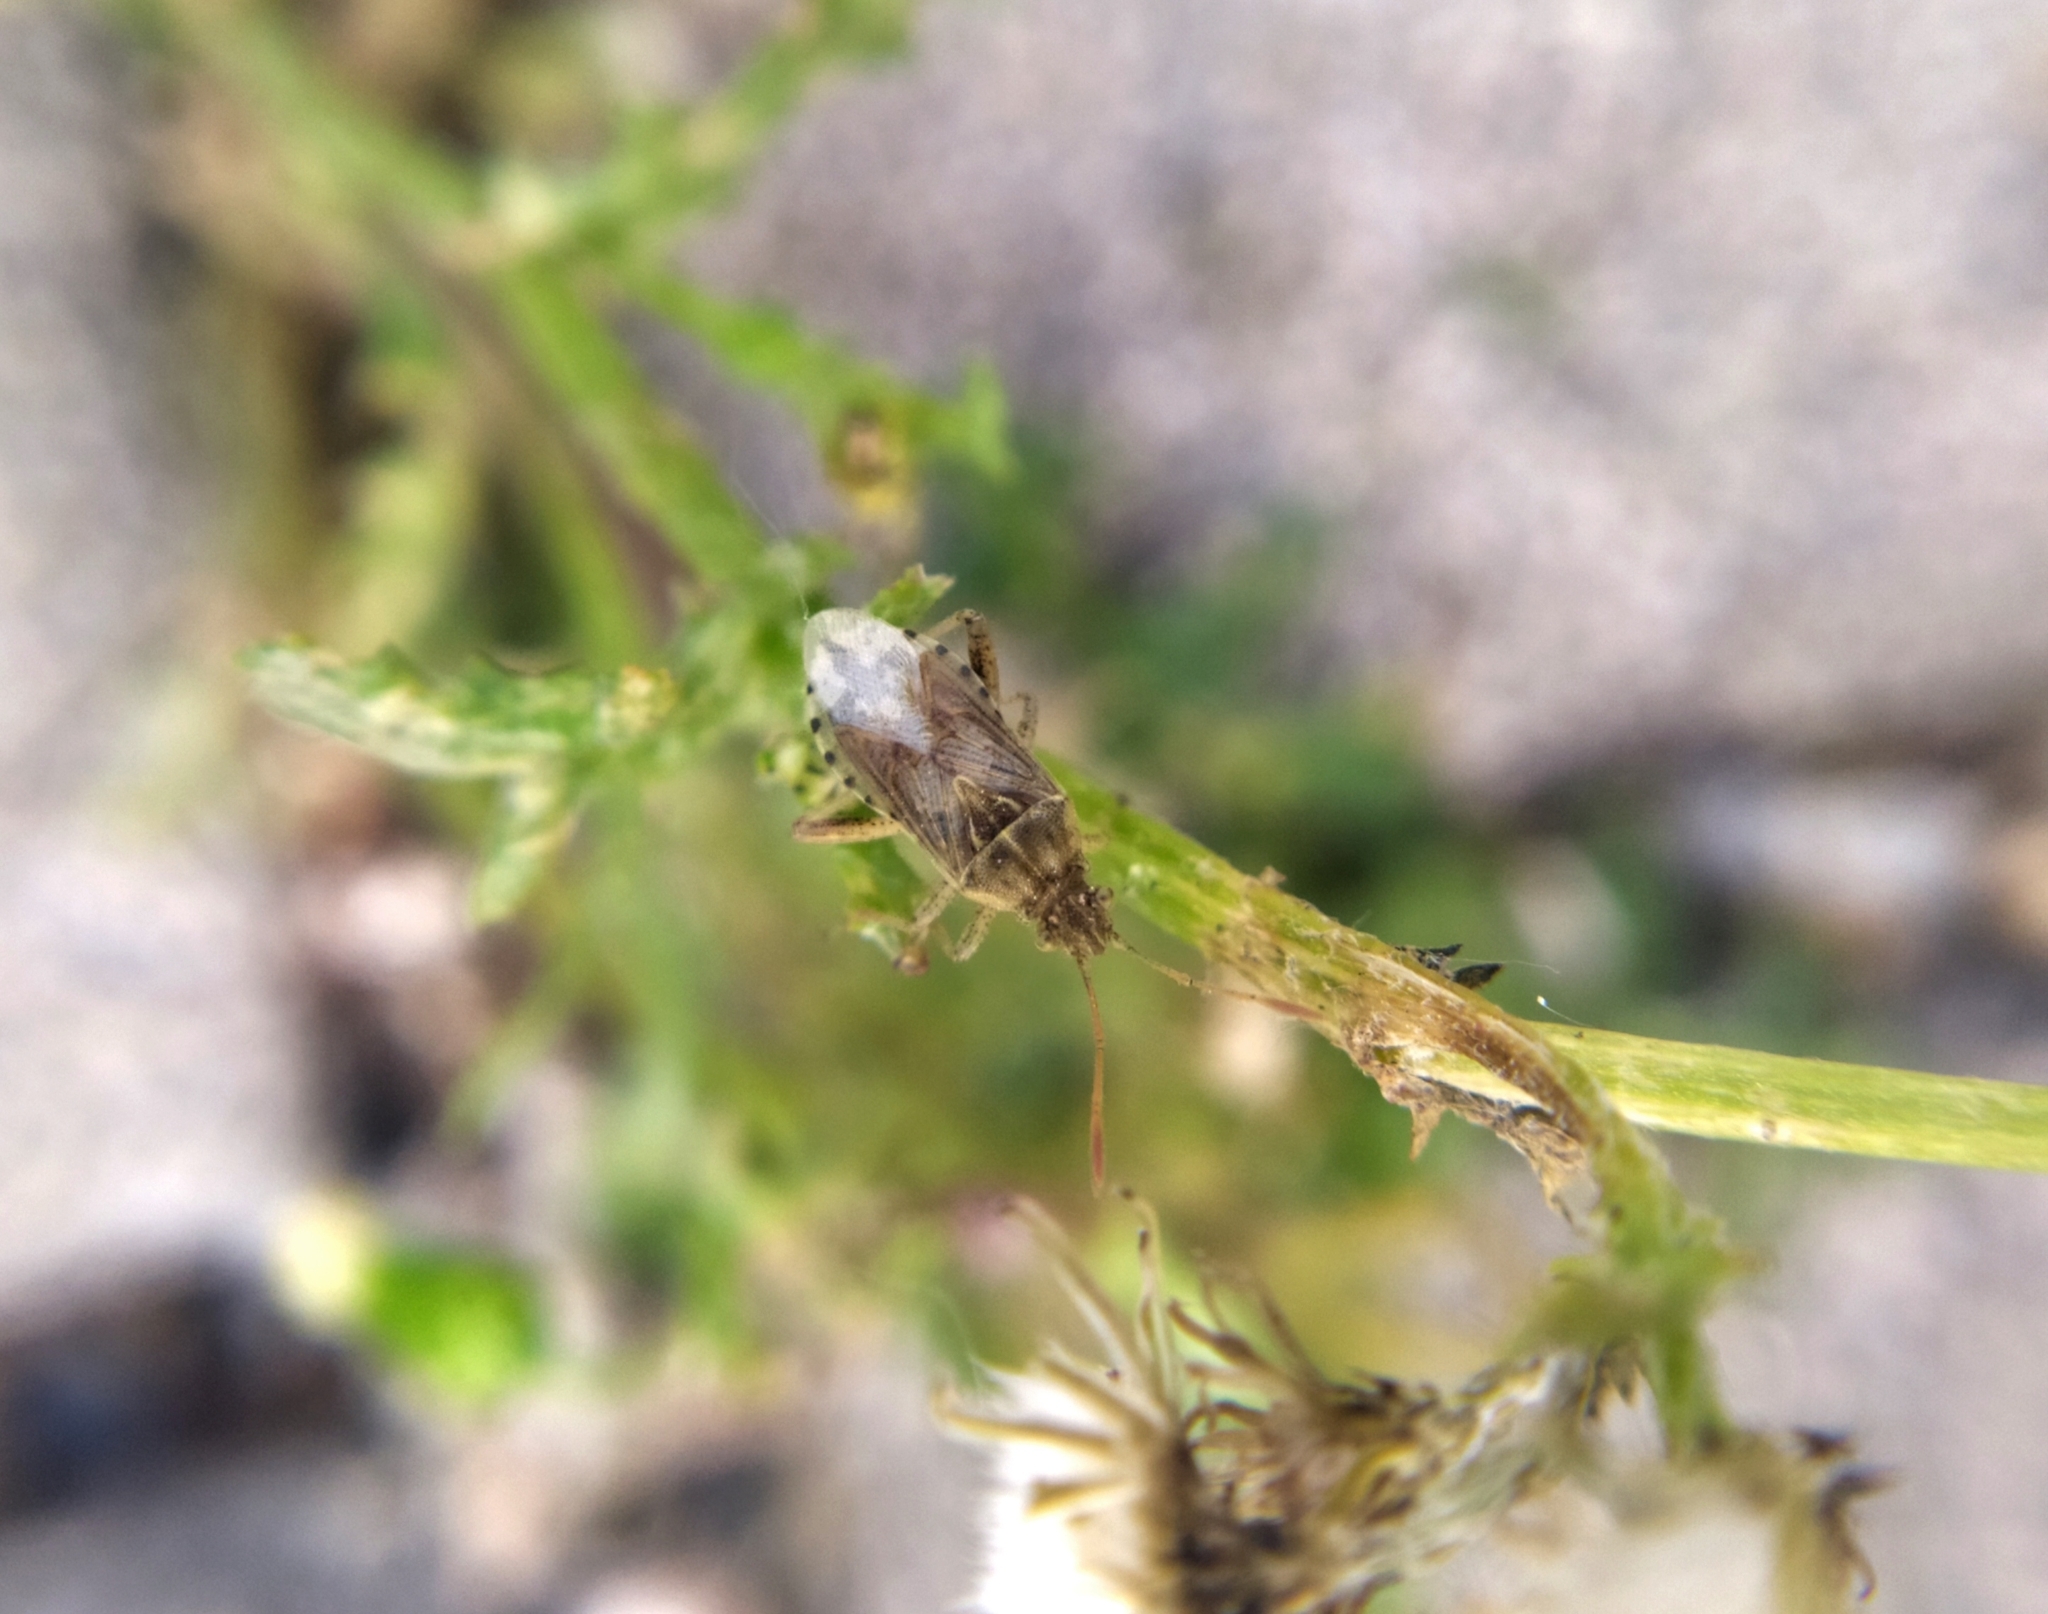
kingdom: Animalia
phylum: Arthropoda
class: Insecta
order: Hemiptera
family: Rhopalidae
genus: Stictopleurus
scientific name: Stictopleurus abutilon
